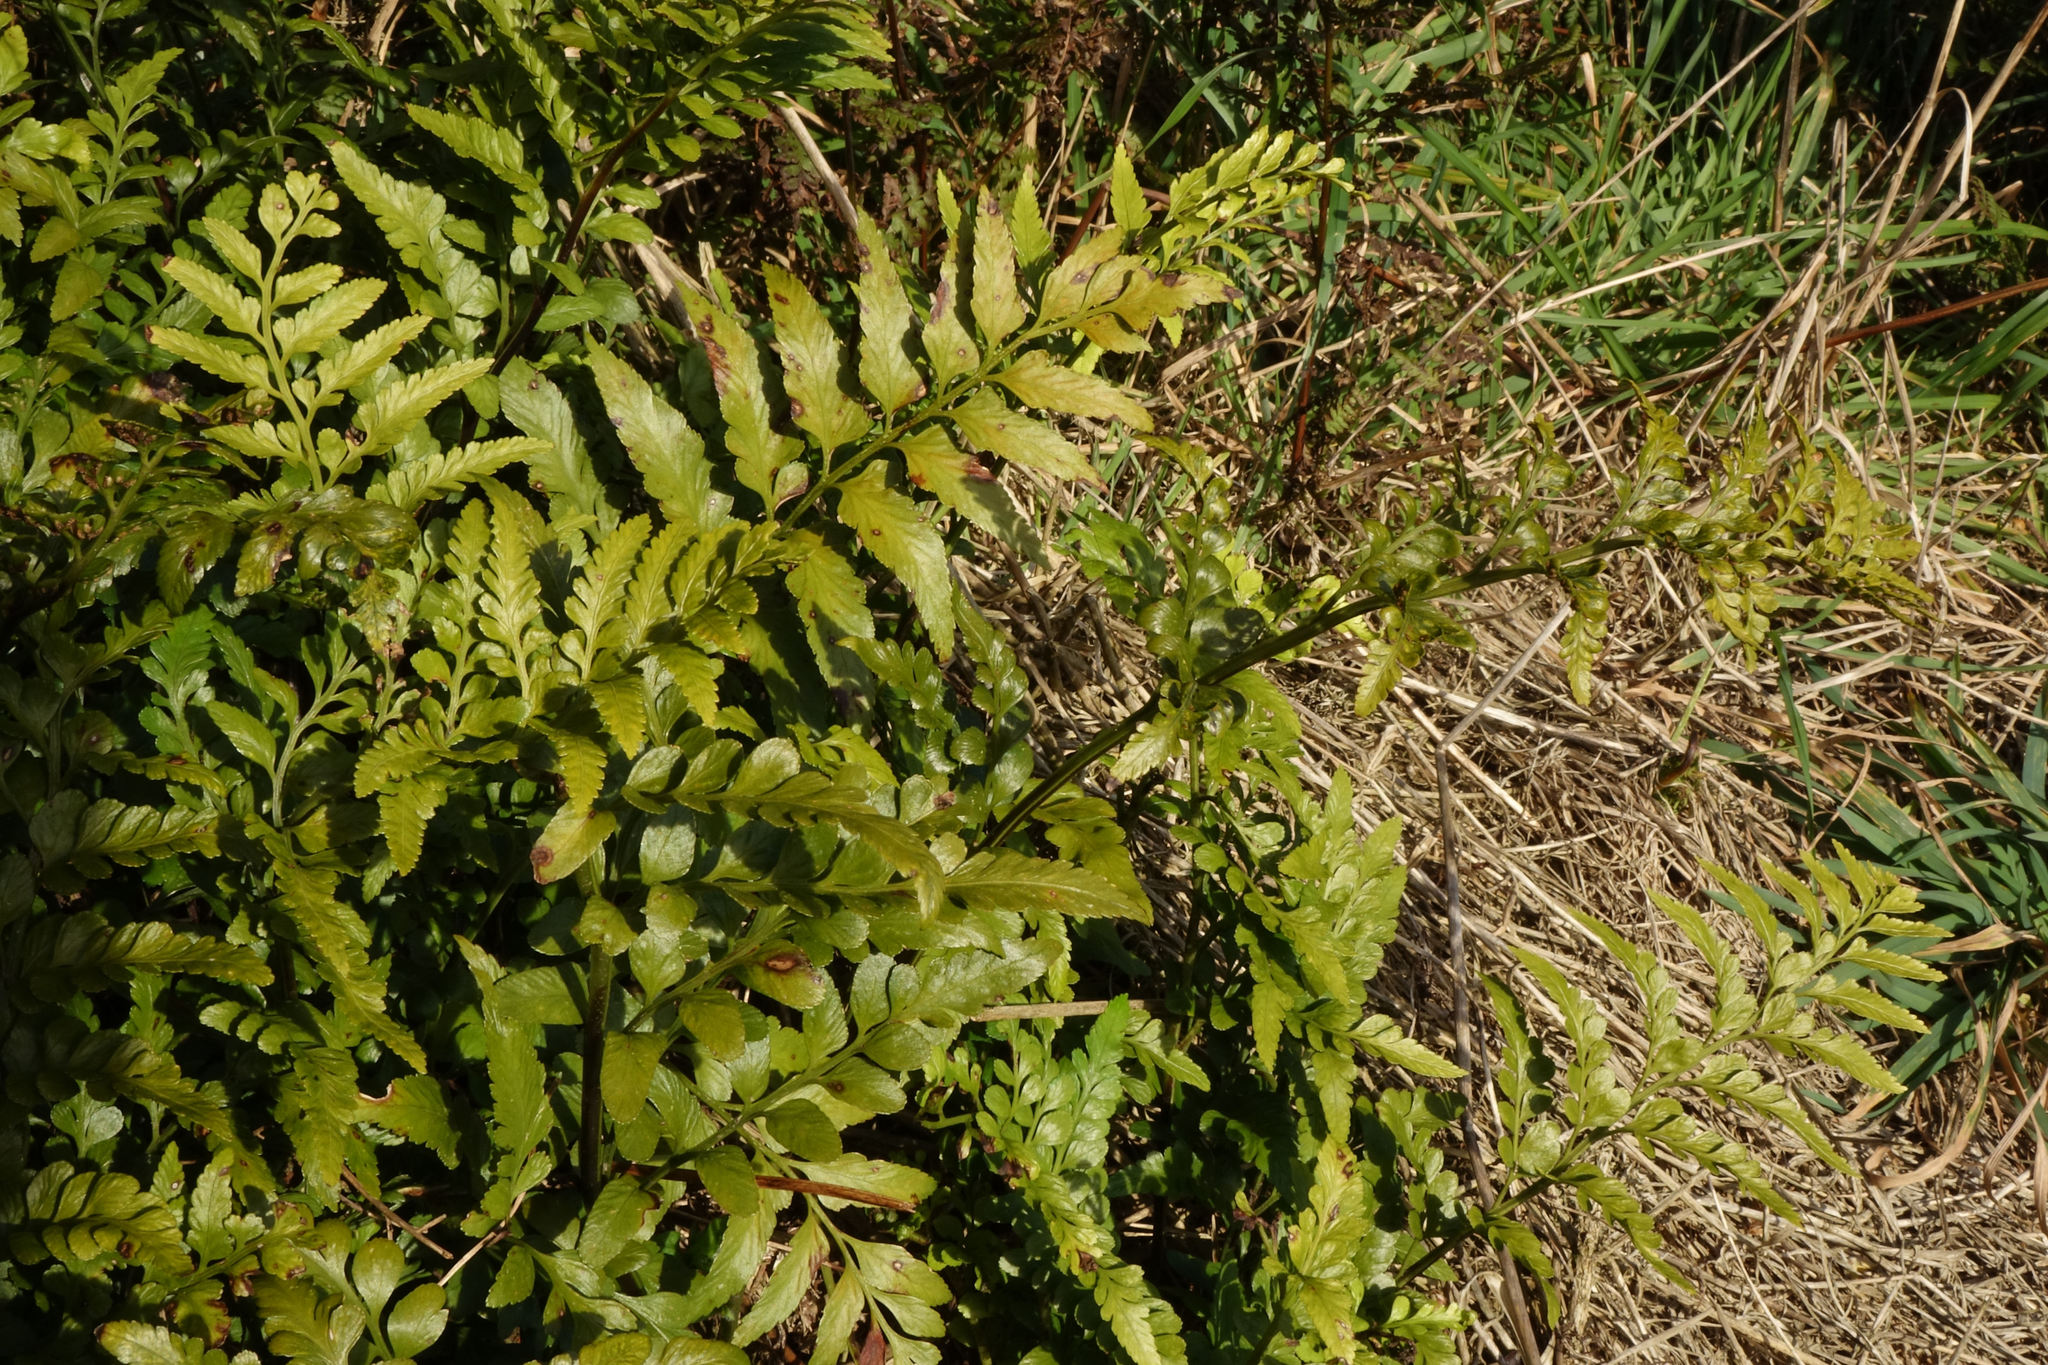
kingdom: Plantae
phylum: Tracheophyta
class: Polypodiopsida
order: Polypodiales
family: Aspleniaceae
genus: Asplenium
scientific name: Asplenium lyallii
